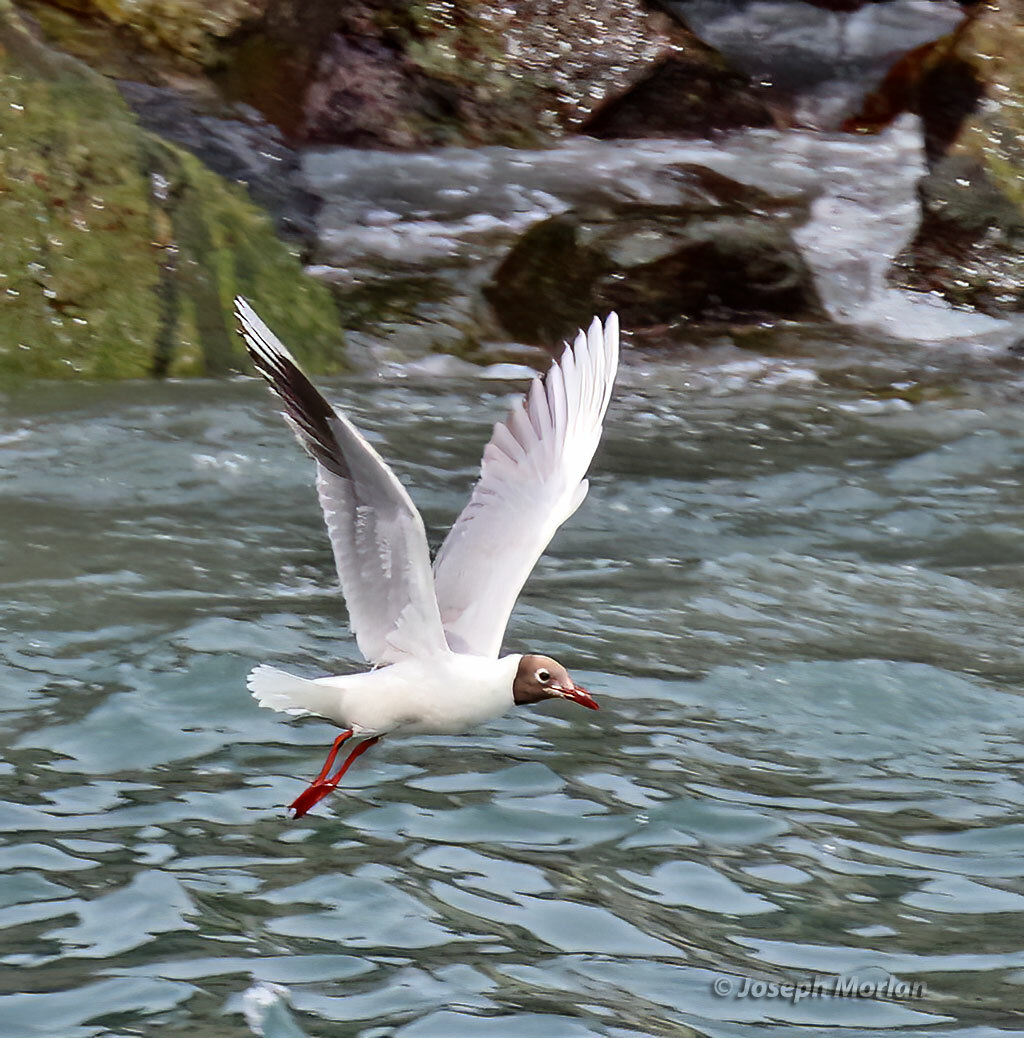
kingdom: Animalia
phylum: Chordata
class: Aves
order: Charadriiformes
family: Laridae
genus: Chroicocephalus
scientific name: Chroicocephalus maculipennis
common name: Brown-hooded gull
